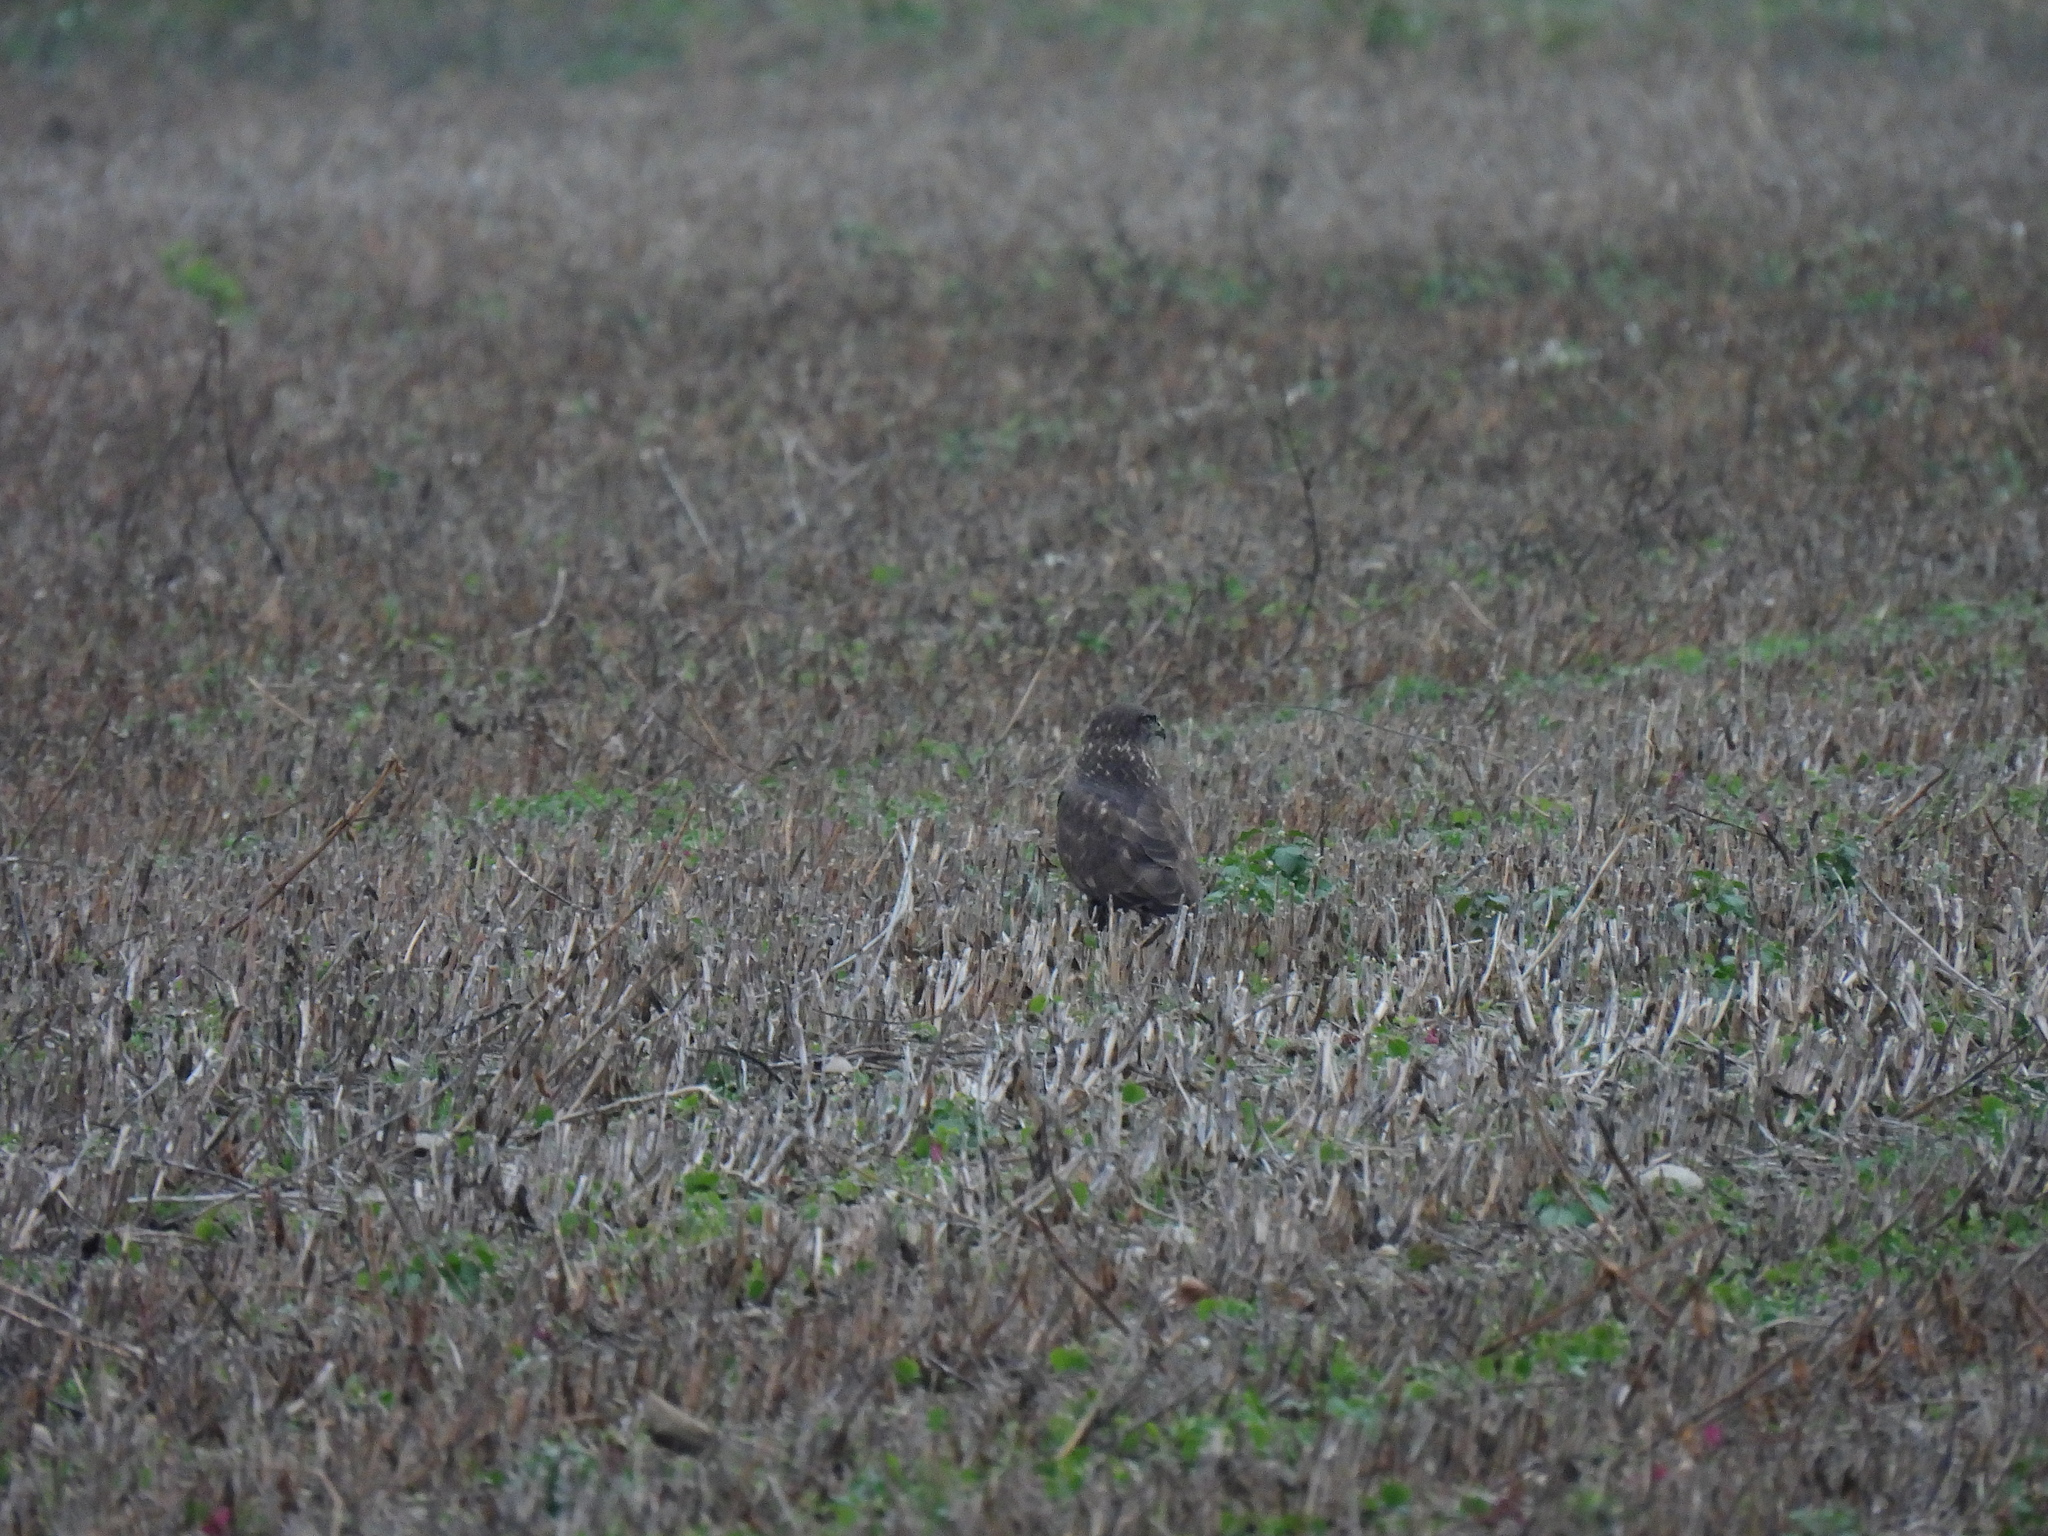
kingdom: Animalia
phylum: Chordata
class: Aves
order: Accipitriformes
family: Accipitridae
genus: Buteo
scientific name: Buteo buteo
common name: Common buzzard
